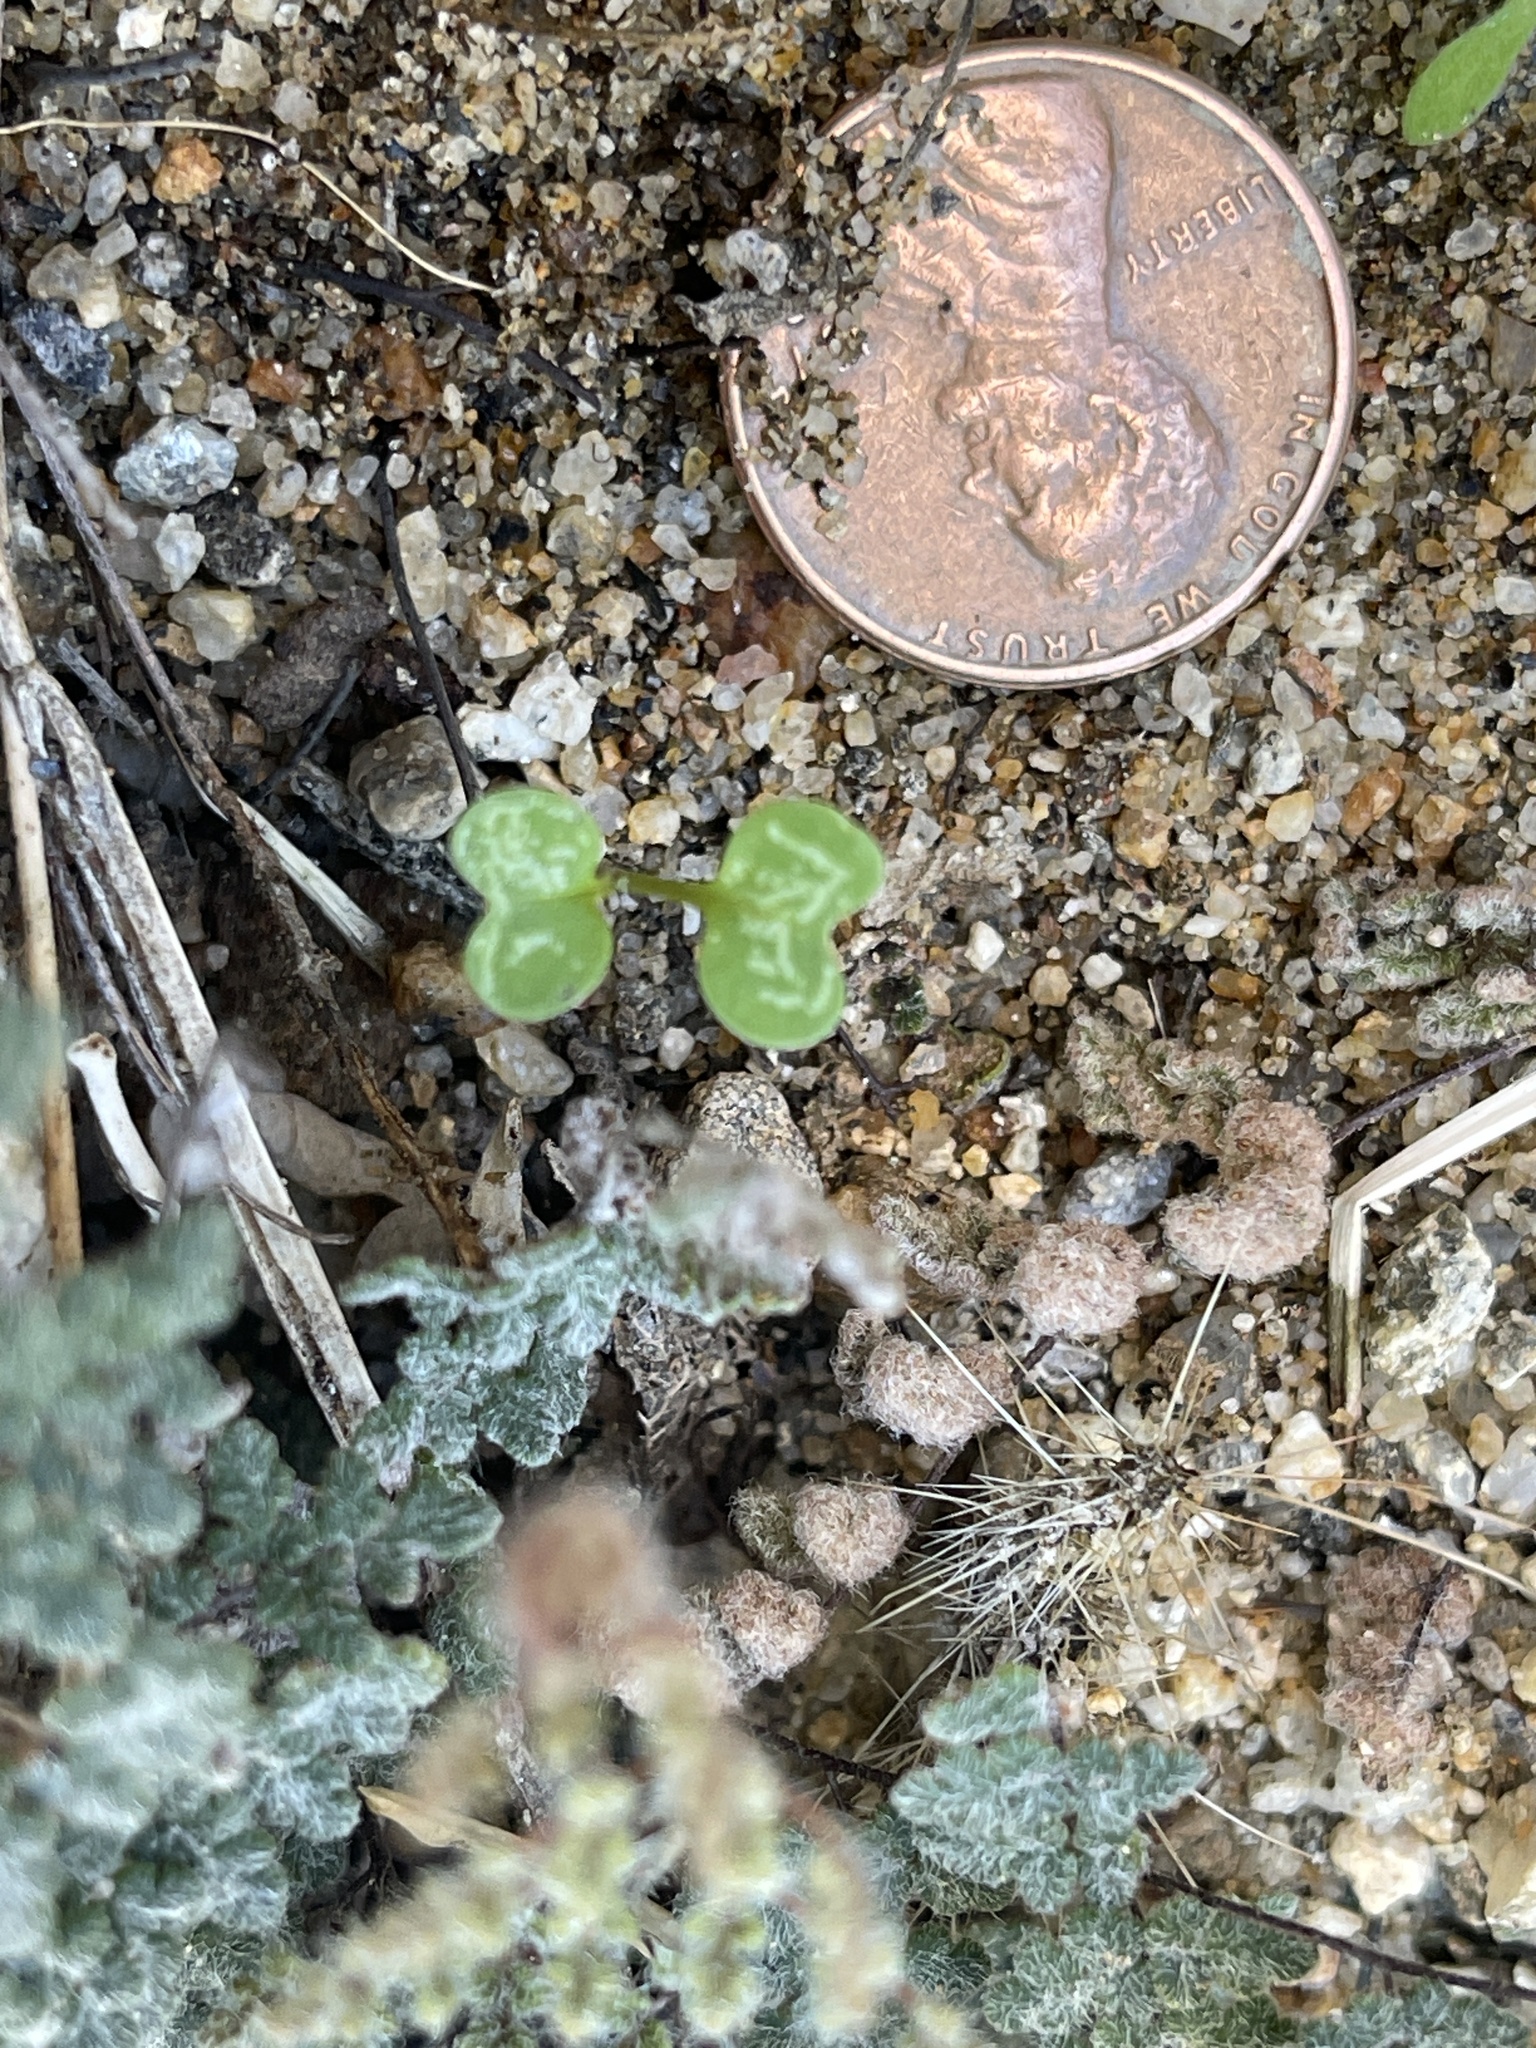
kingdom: Plantae
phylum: Tracheophyta
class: Polypodiopsida
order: Polypodiales
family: Pteridaceae
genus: Myriopteris
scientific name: Myriopteris parryi
